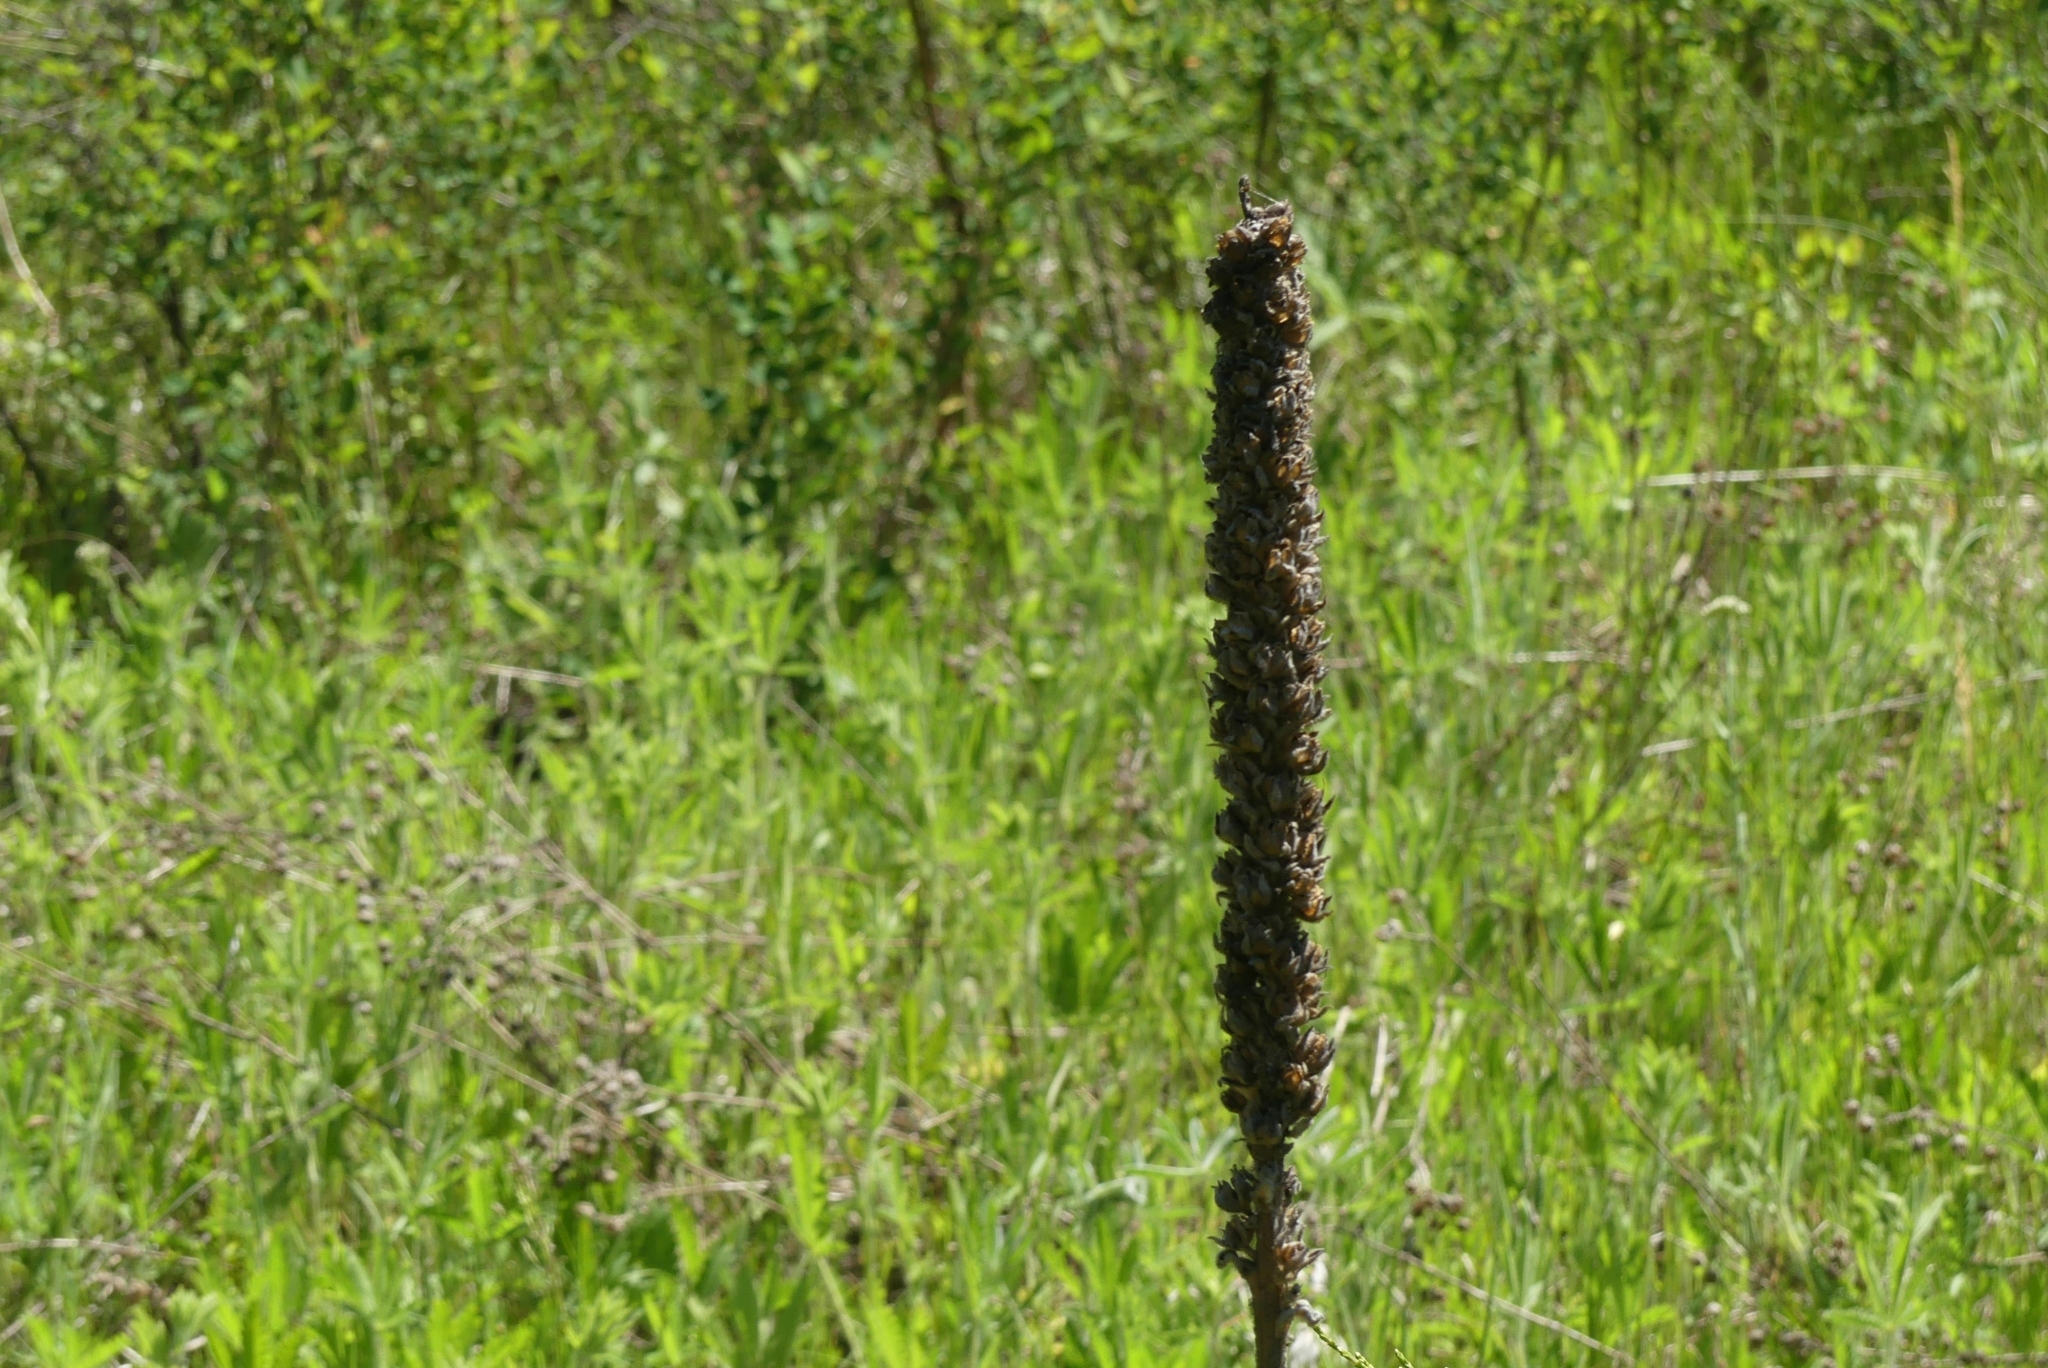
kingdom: Plantae
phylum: Tracheophyta
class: Magnoliopsida
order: Lamiales
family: Scrophulariaceae
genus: Verbascum
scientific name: Verbascum thapsus
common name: Common mullein
